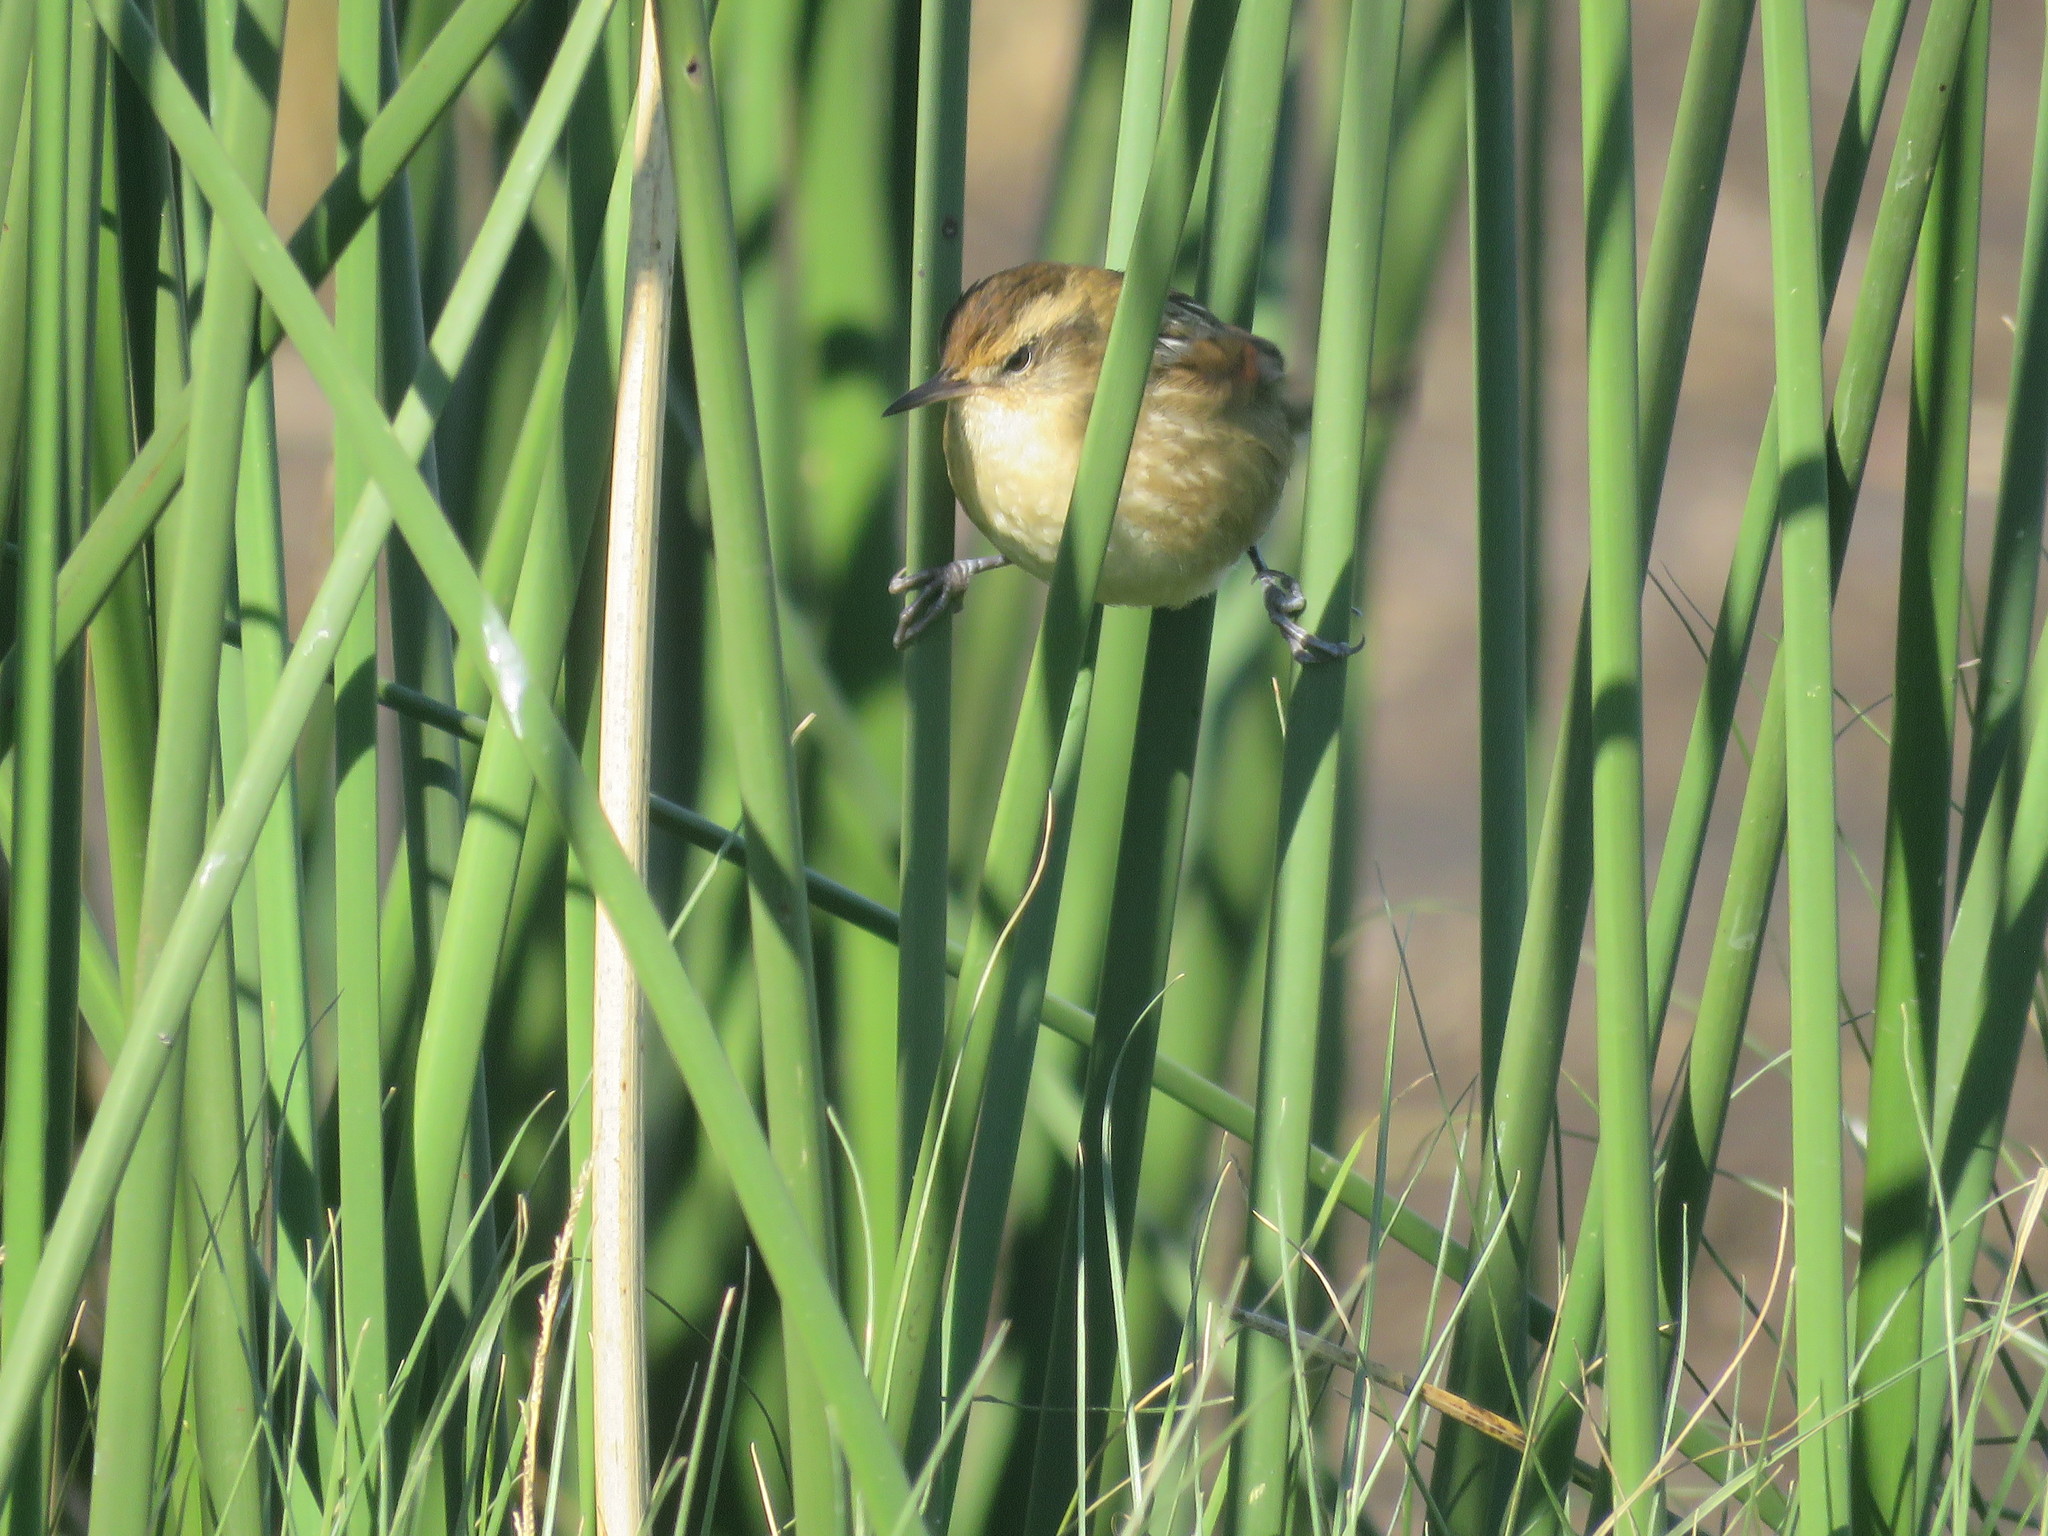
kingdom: Animalia
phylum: Chordata
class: Aves
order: Passeriformes
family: Furnariidae
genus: Phleocryptes
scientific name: Phleocryptes melanops
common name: Wren-like rushbird
